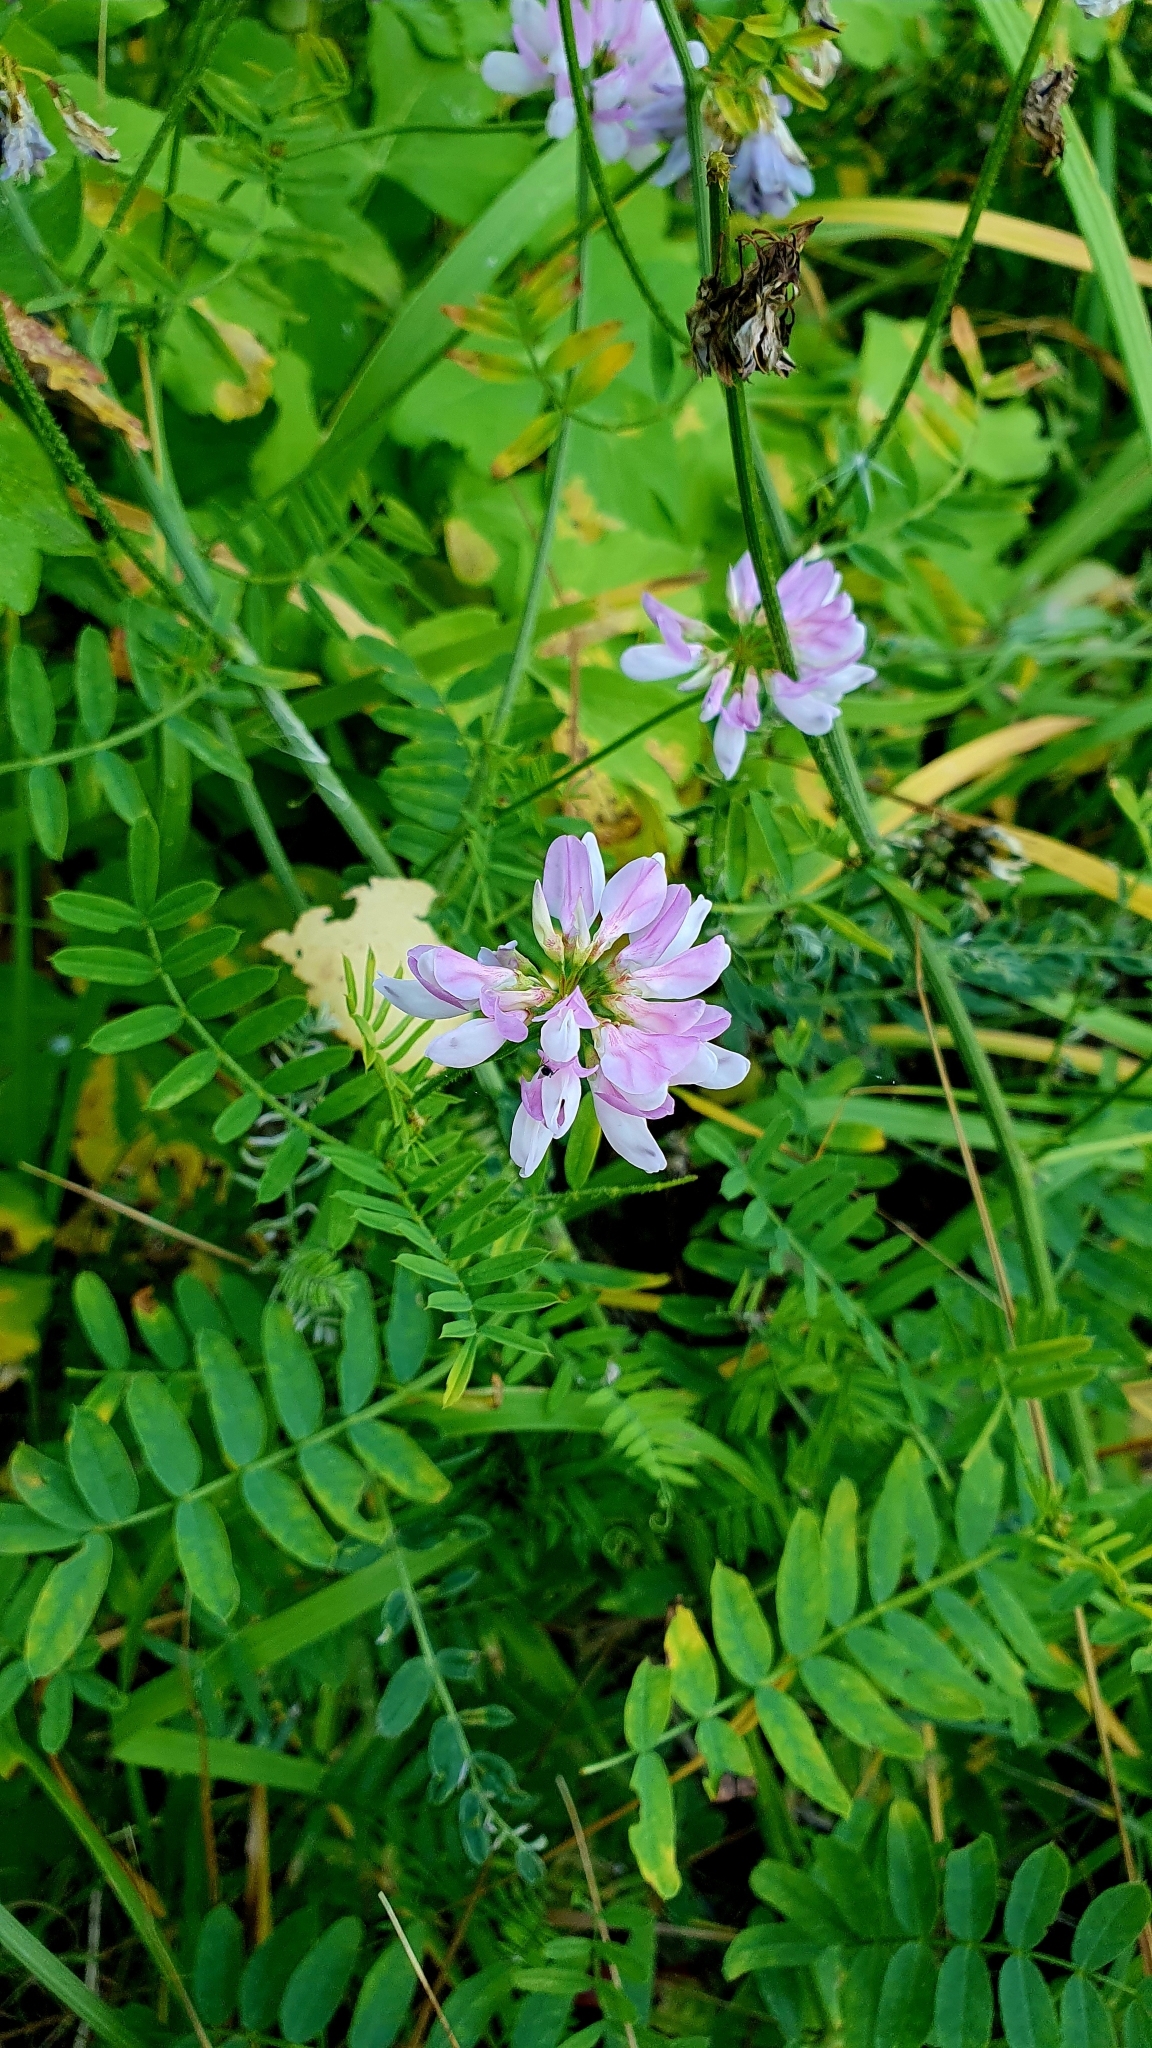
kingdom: Plantae
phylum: Tracheophyta
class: Magnoliopsida
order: Fabales
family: Fabaceae
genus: Coronilla
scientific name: Coronilla varia
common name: Crownvetch
